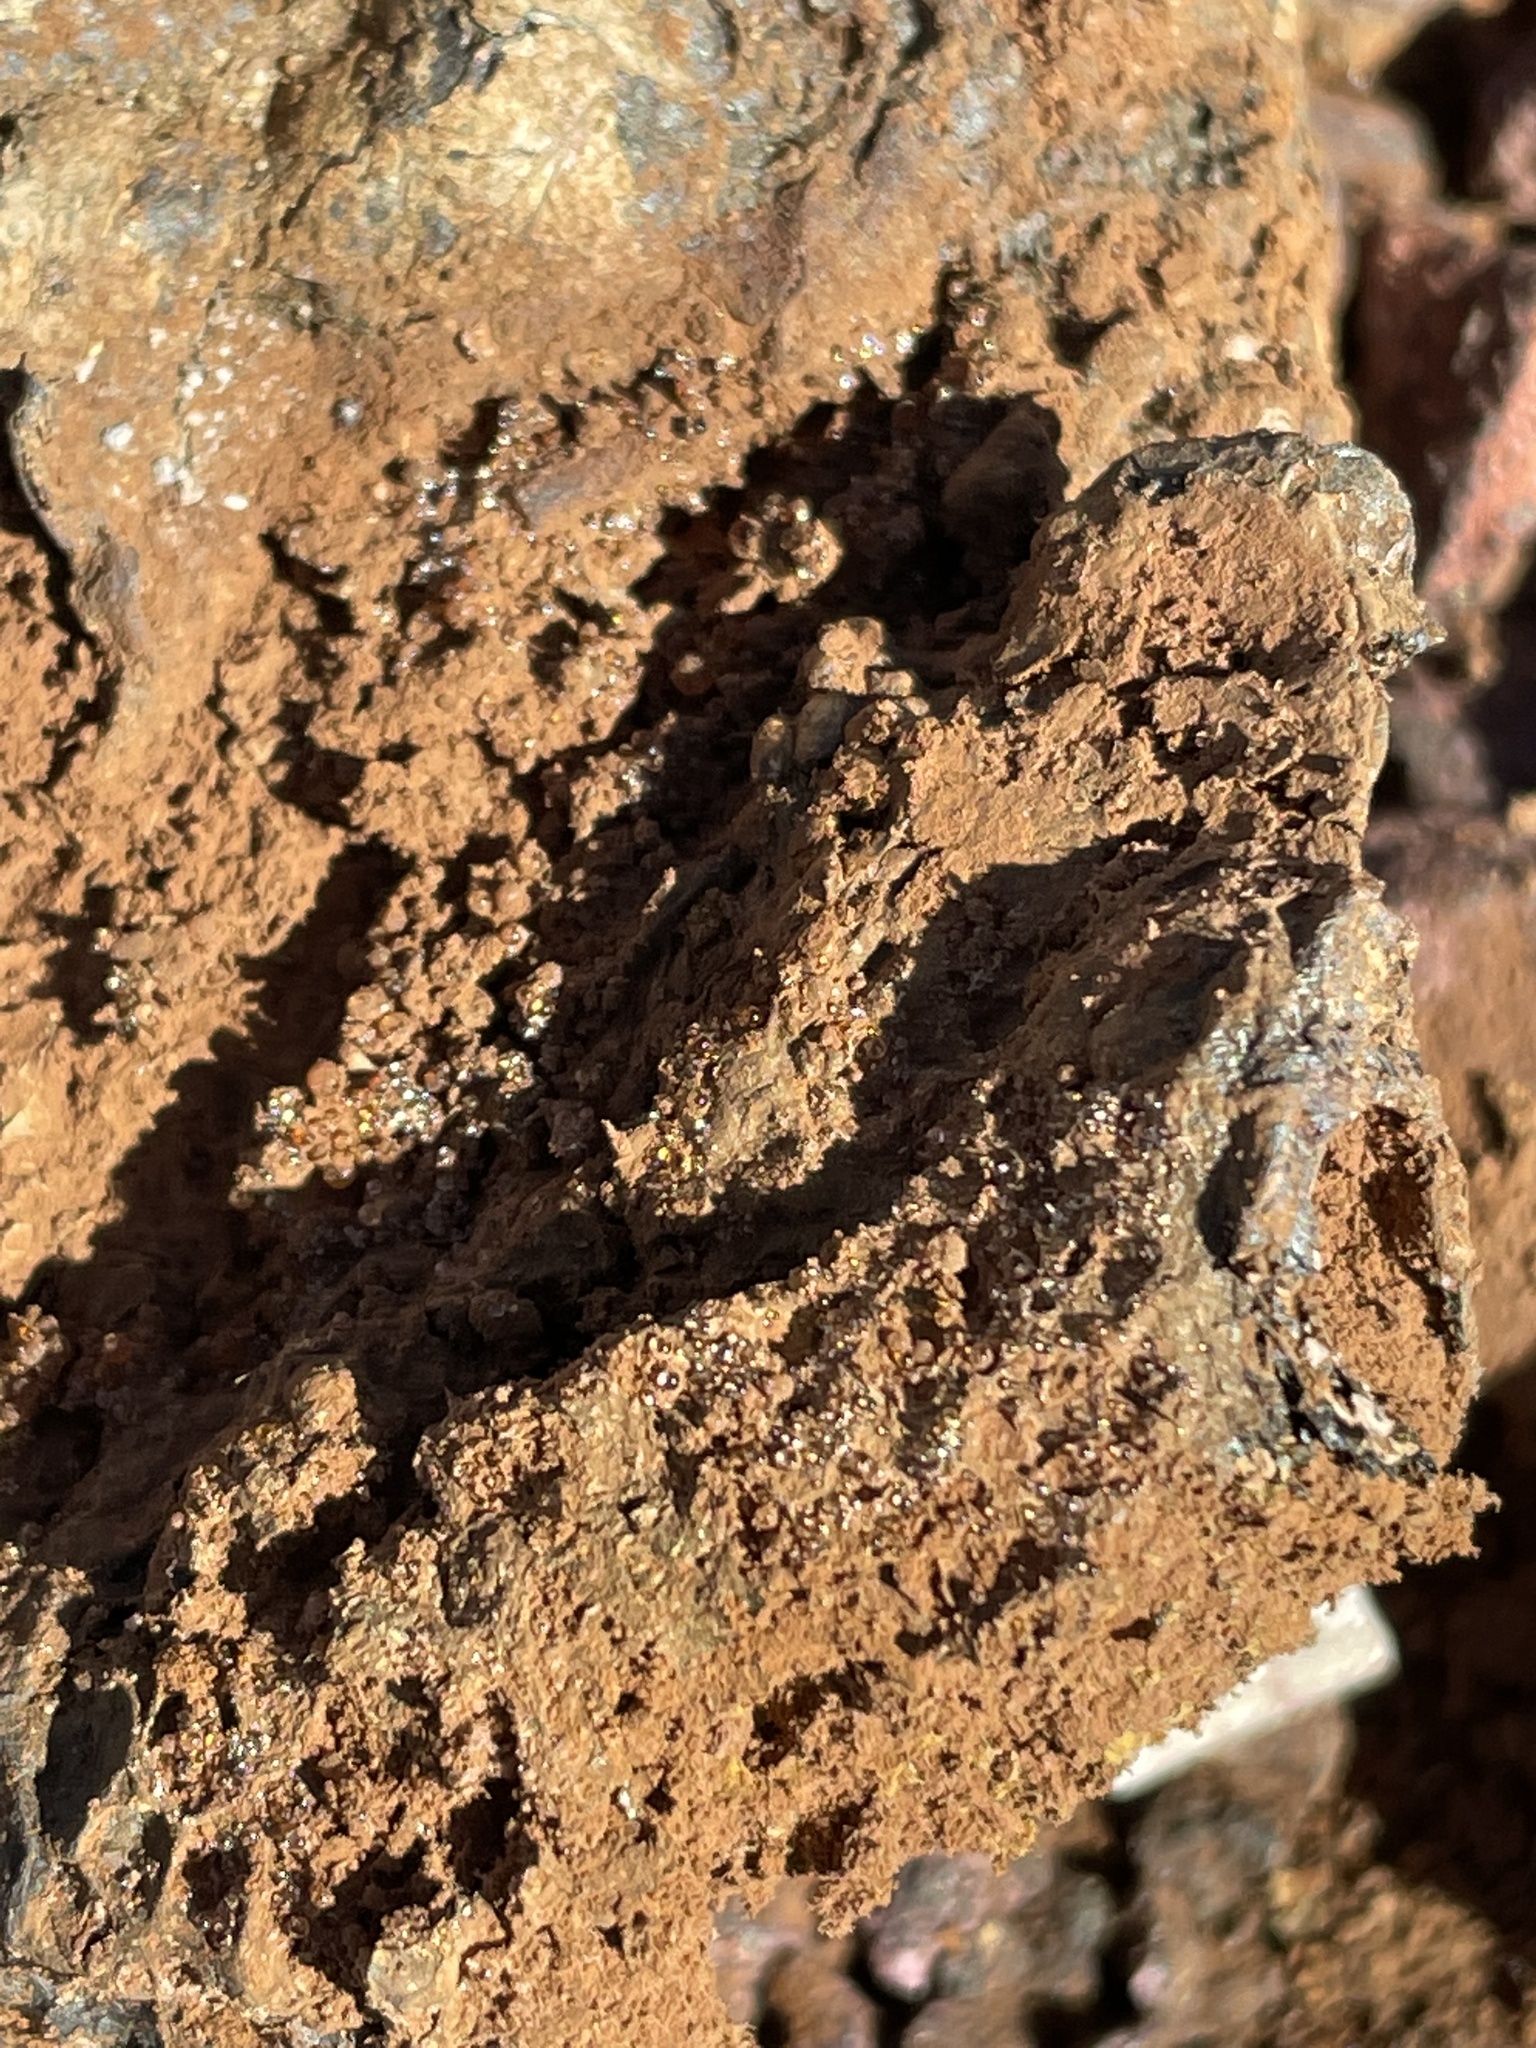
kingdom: Fungi
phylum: Basidiomycota
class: Agaricomycetes
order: Boletales
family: Sclerodermataceae
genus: Pisolithus
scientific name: Pisolithus tinctorius
